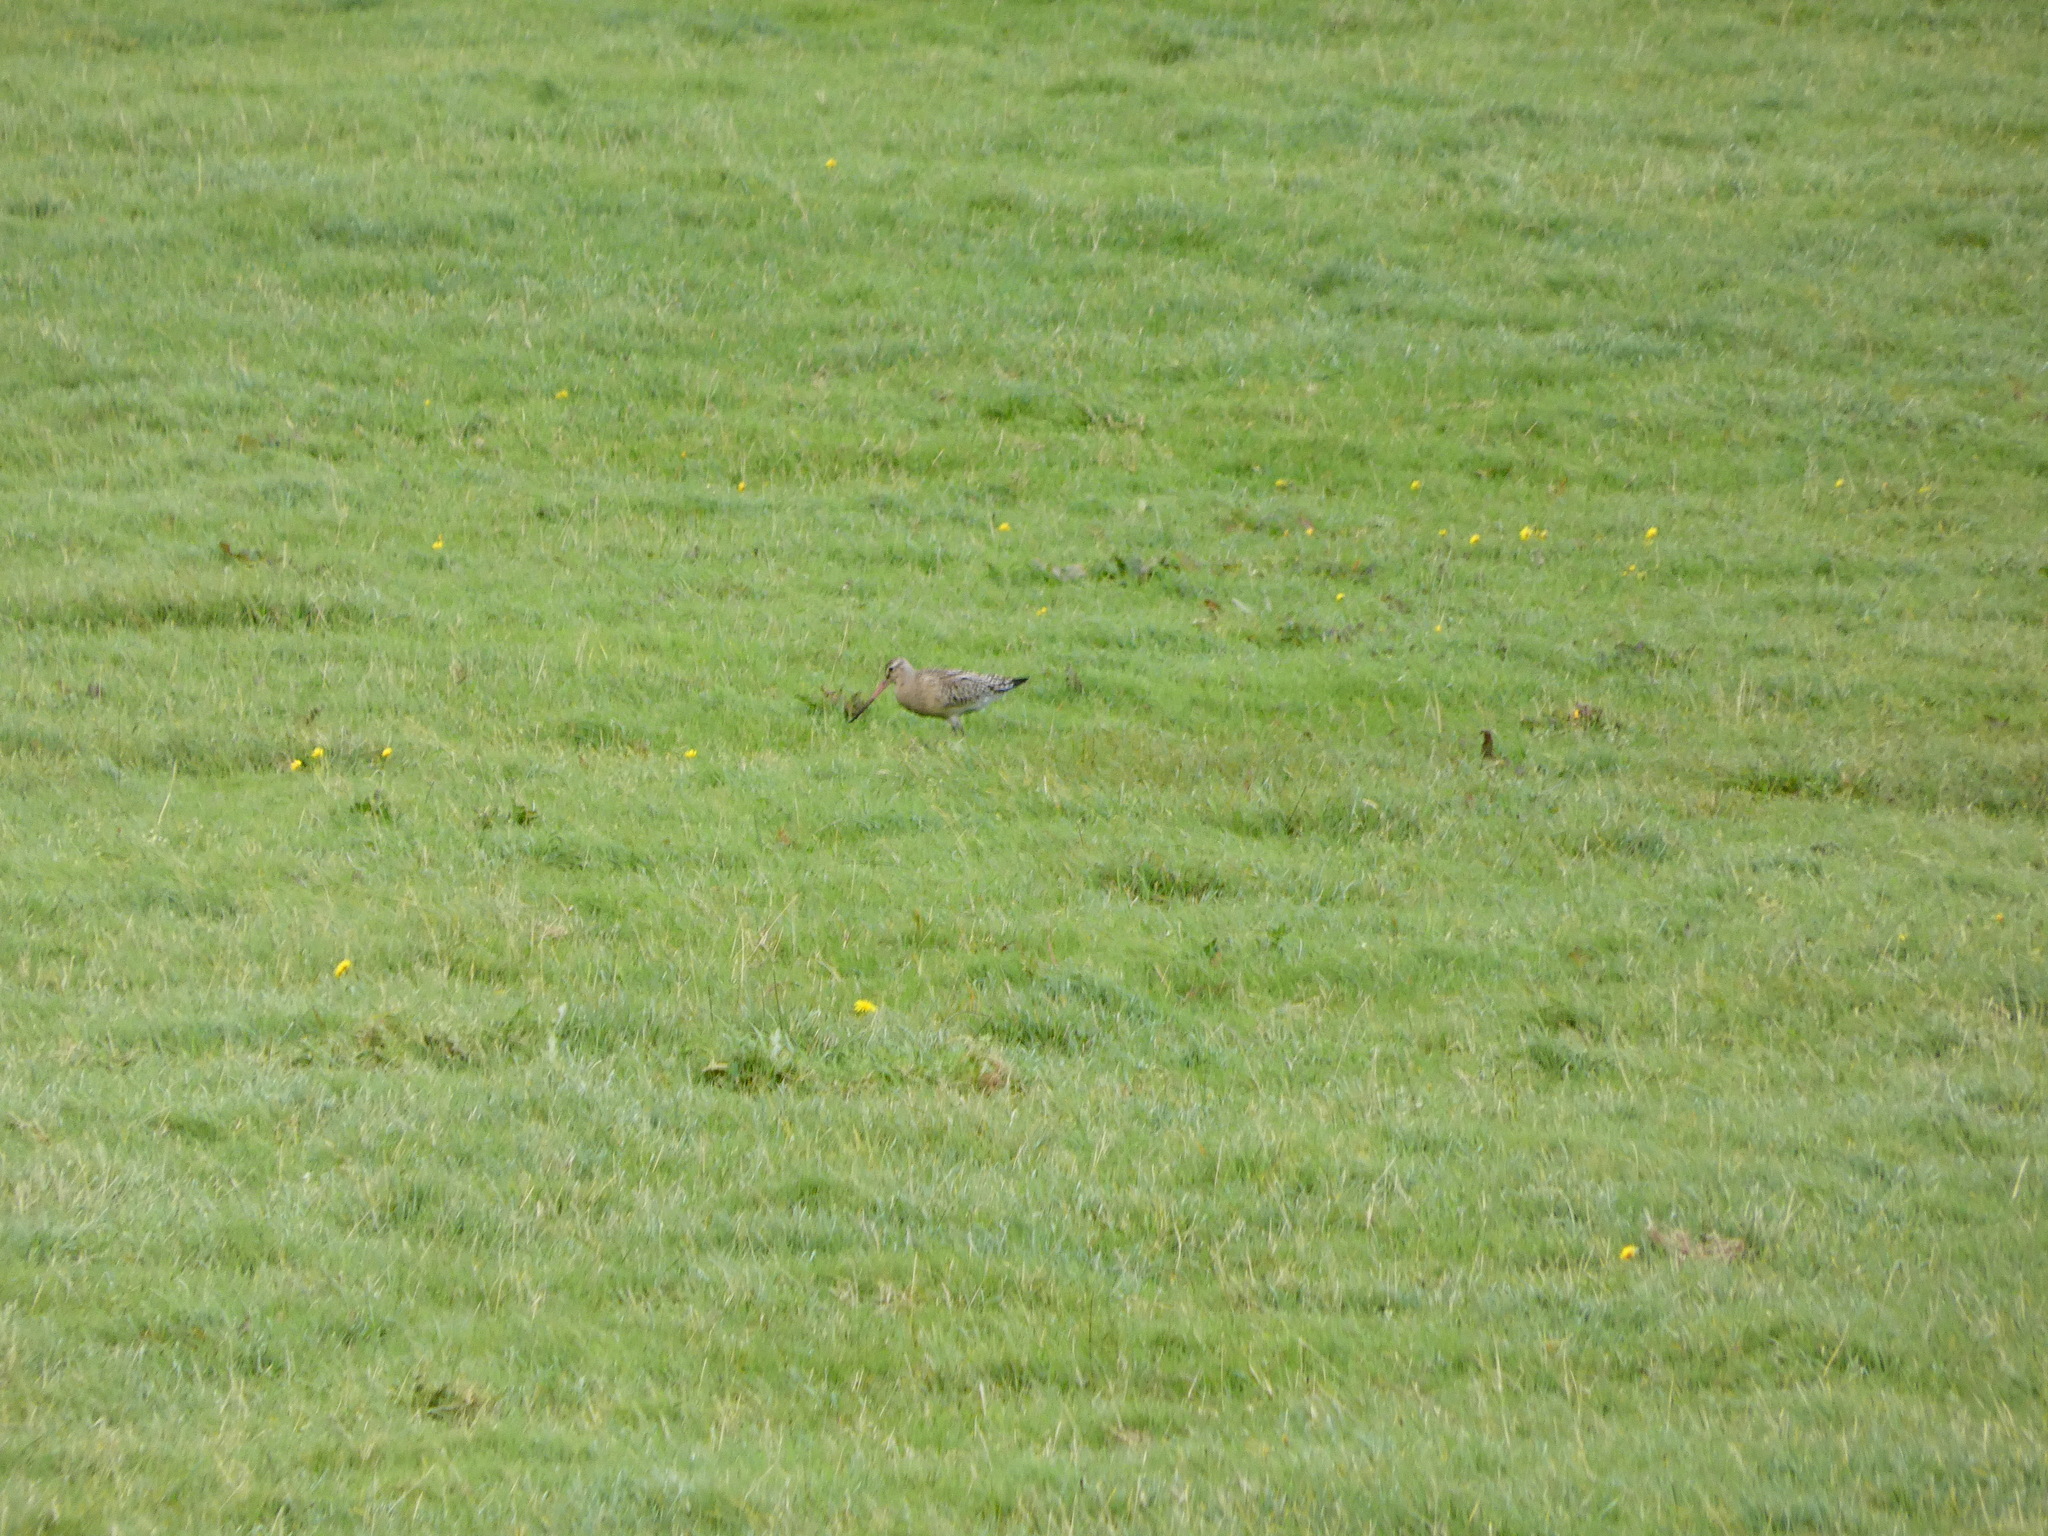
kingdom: Animalia
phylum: Chordata
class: Aves
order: Charadriiformes
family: Scolopacidae
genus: Limosa
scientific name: Limosa lapponica
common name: Bar-tailed godwit
